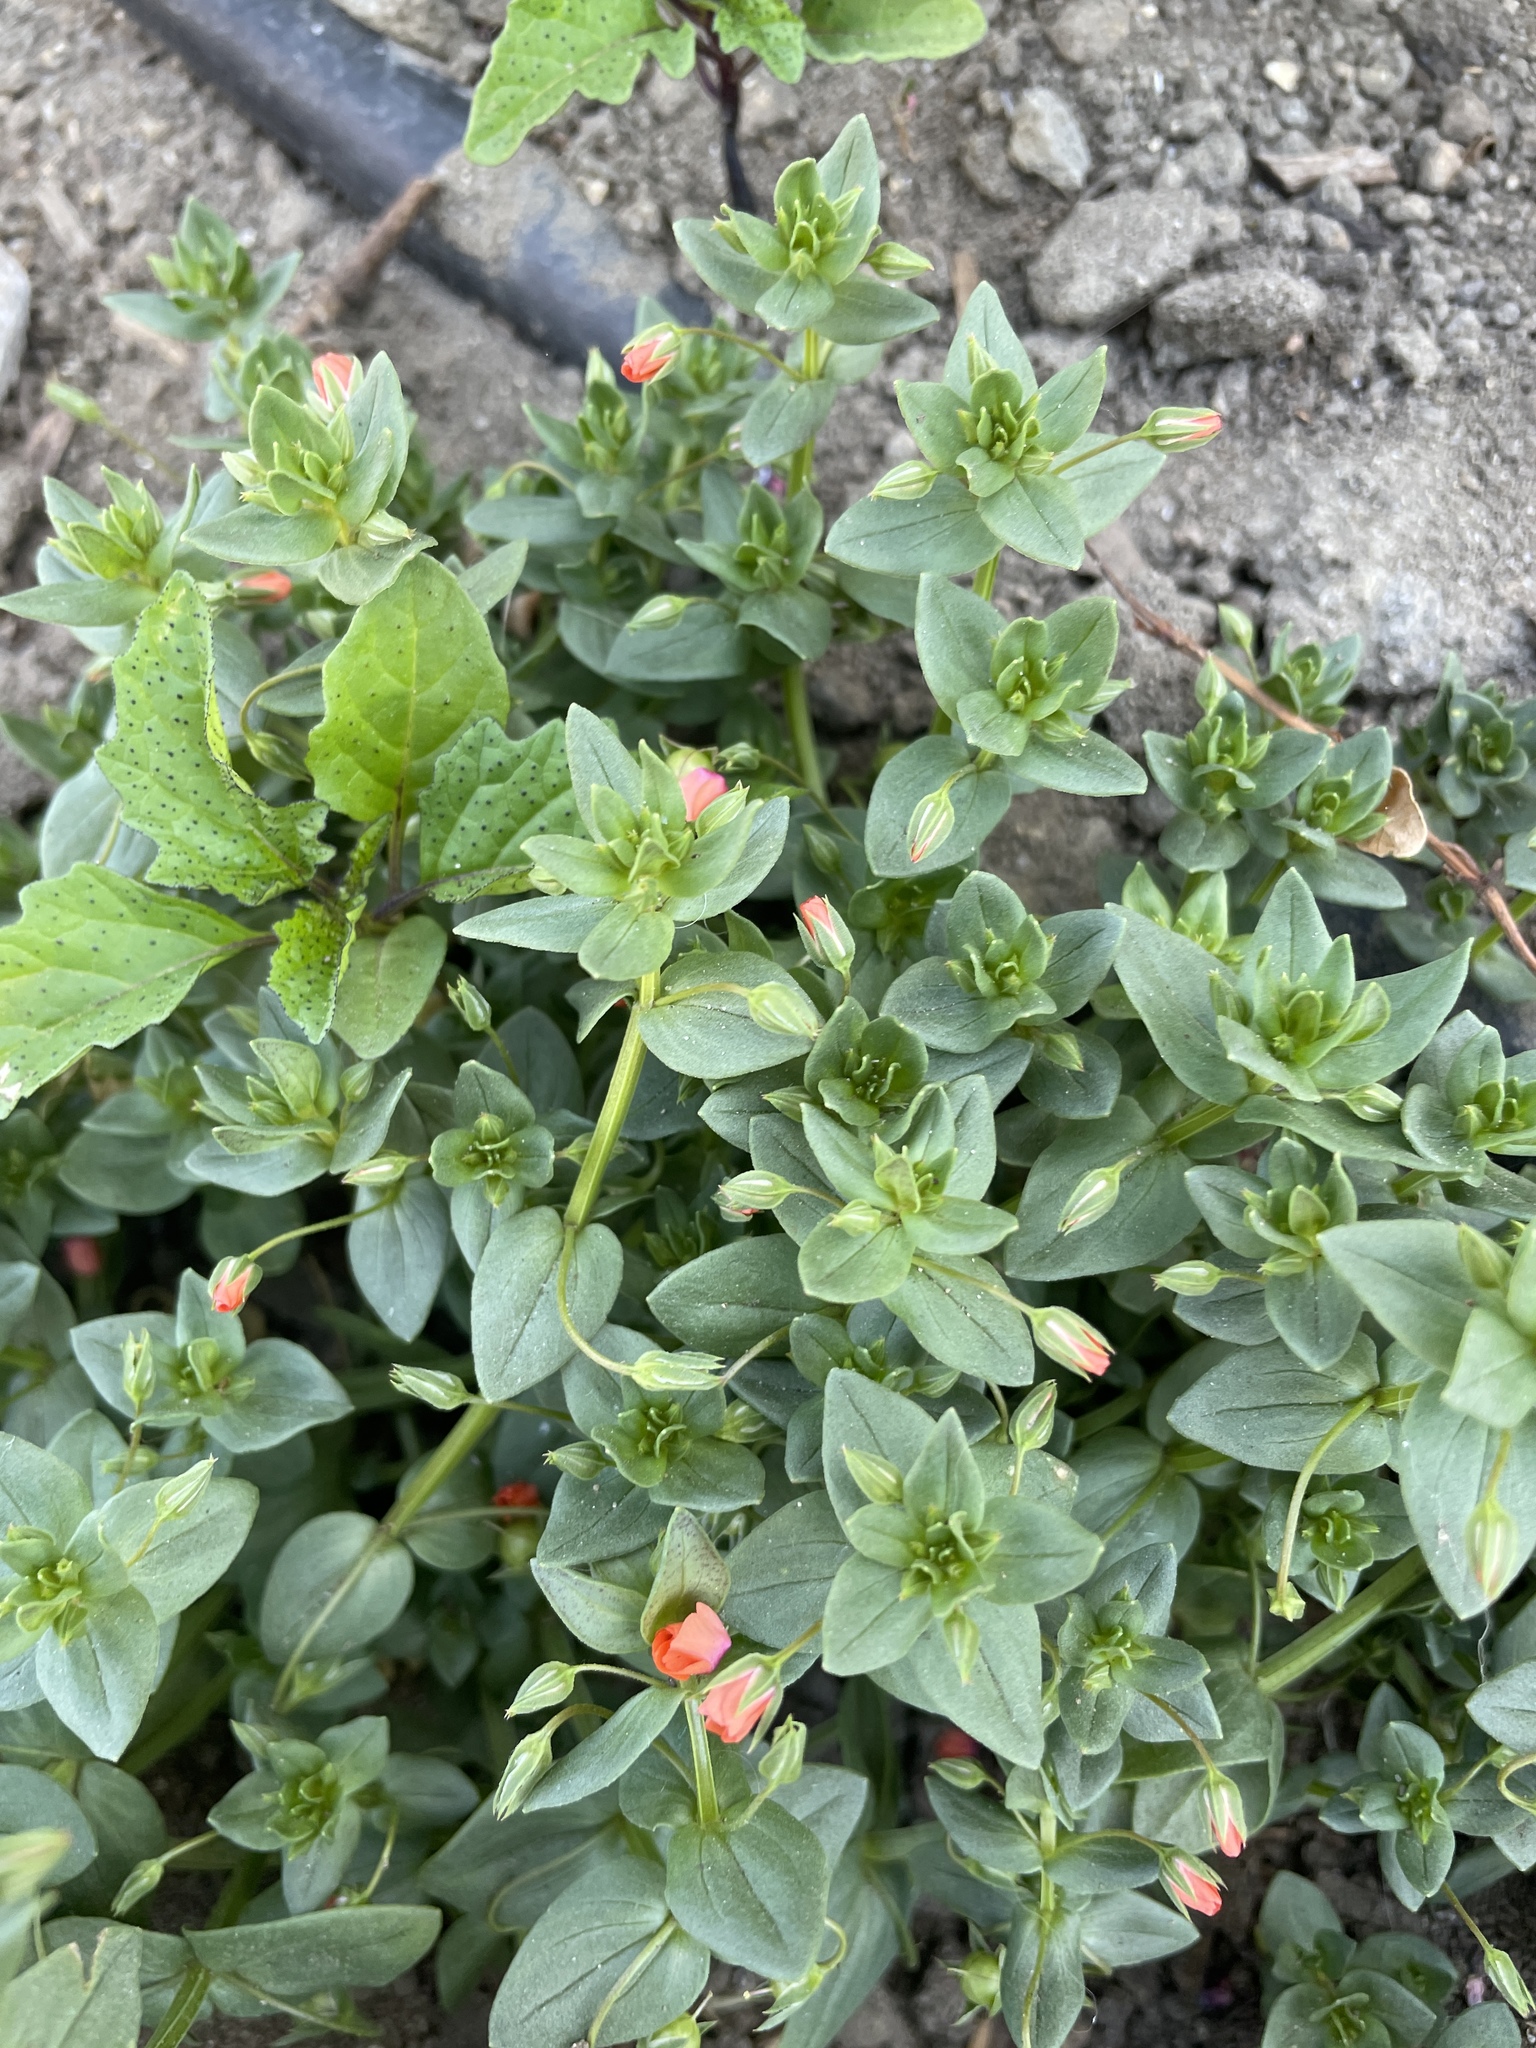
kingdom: Plantae
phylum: Tracheophyta
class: Magnoliopsida
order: Ericales
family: Primulaceae
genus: Lysimachia
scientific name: Lysimachia arvensis
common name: Scarlet pimpernel
